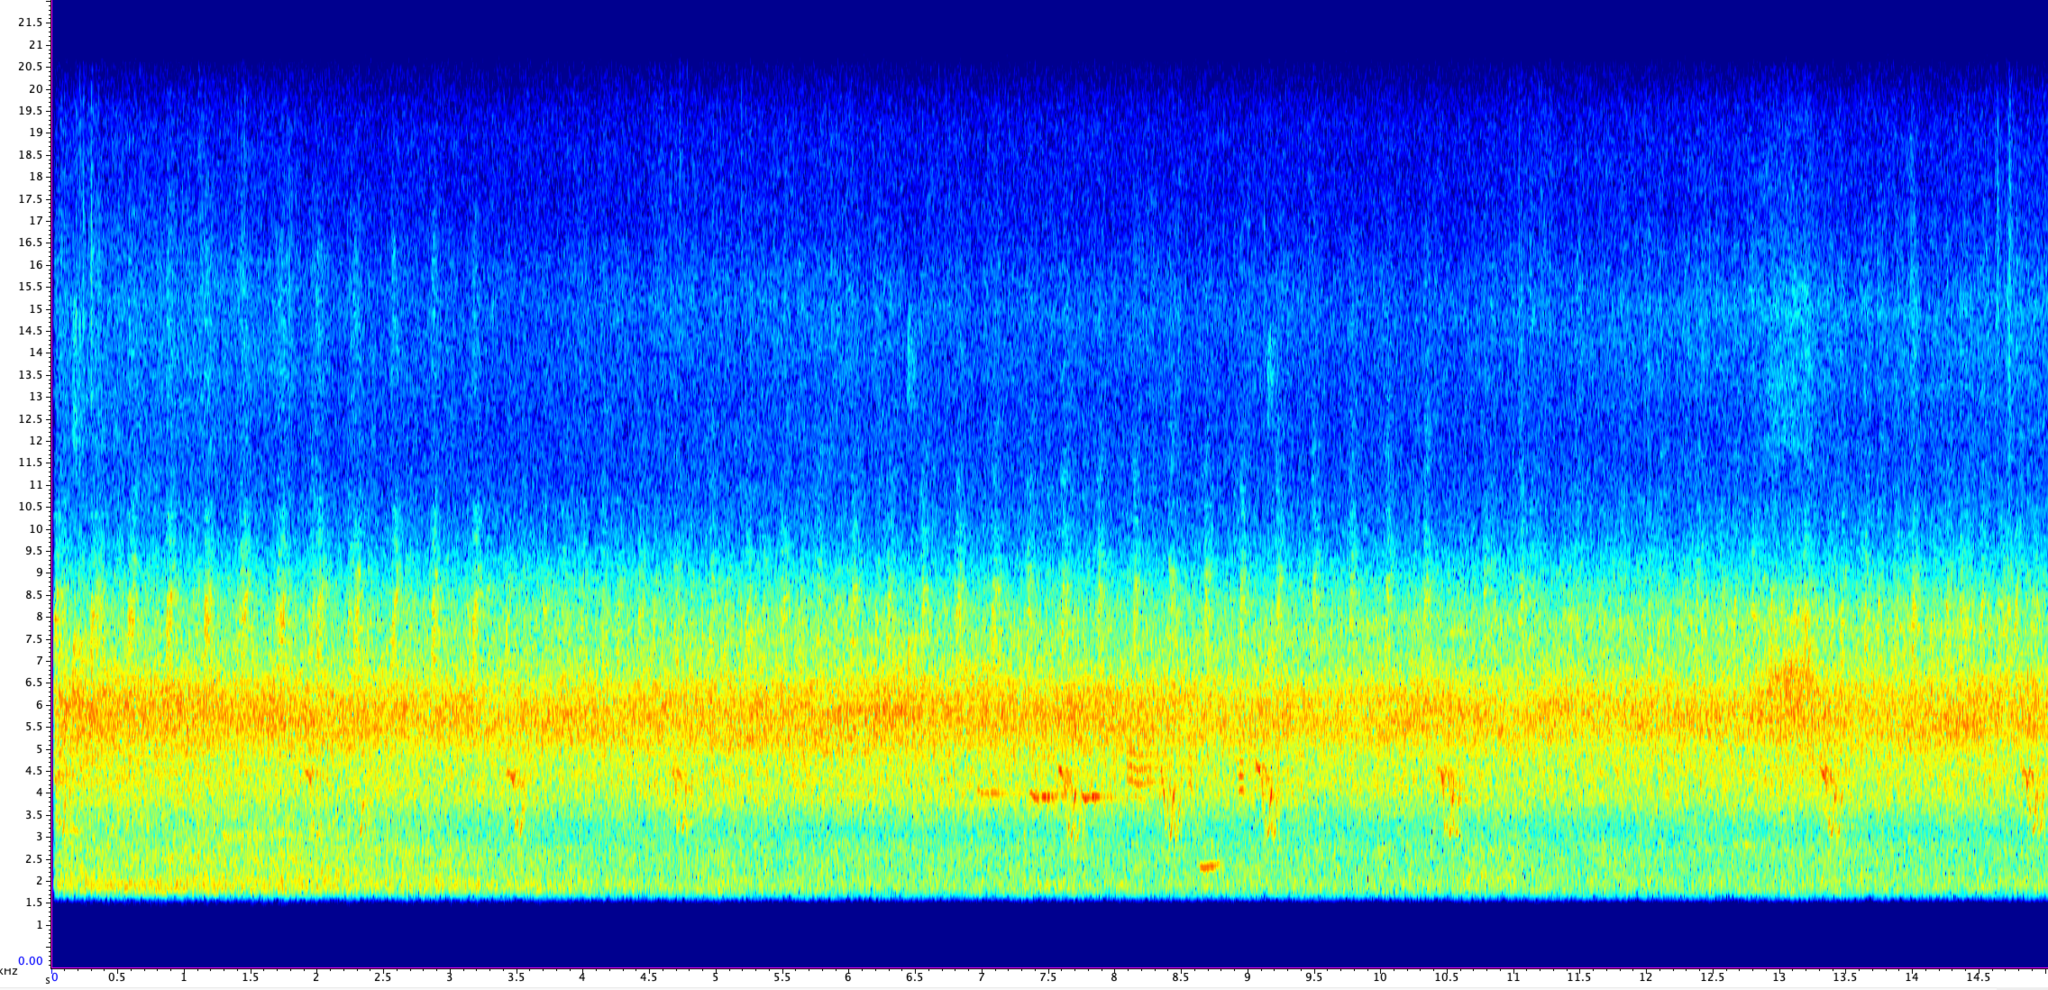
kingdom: Animalia
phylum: Arthropoda
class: Insecta
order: Hemiptera
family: Cicadidae
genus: Magicicada
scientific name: Magicicada septendecula
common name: Decula periodical cicada
